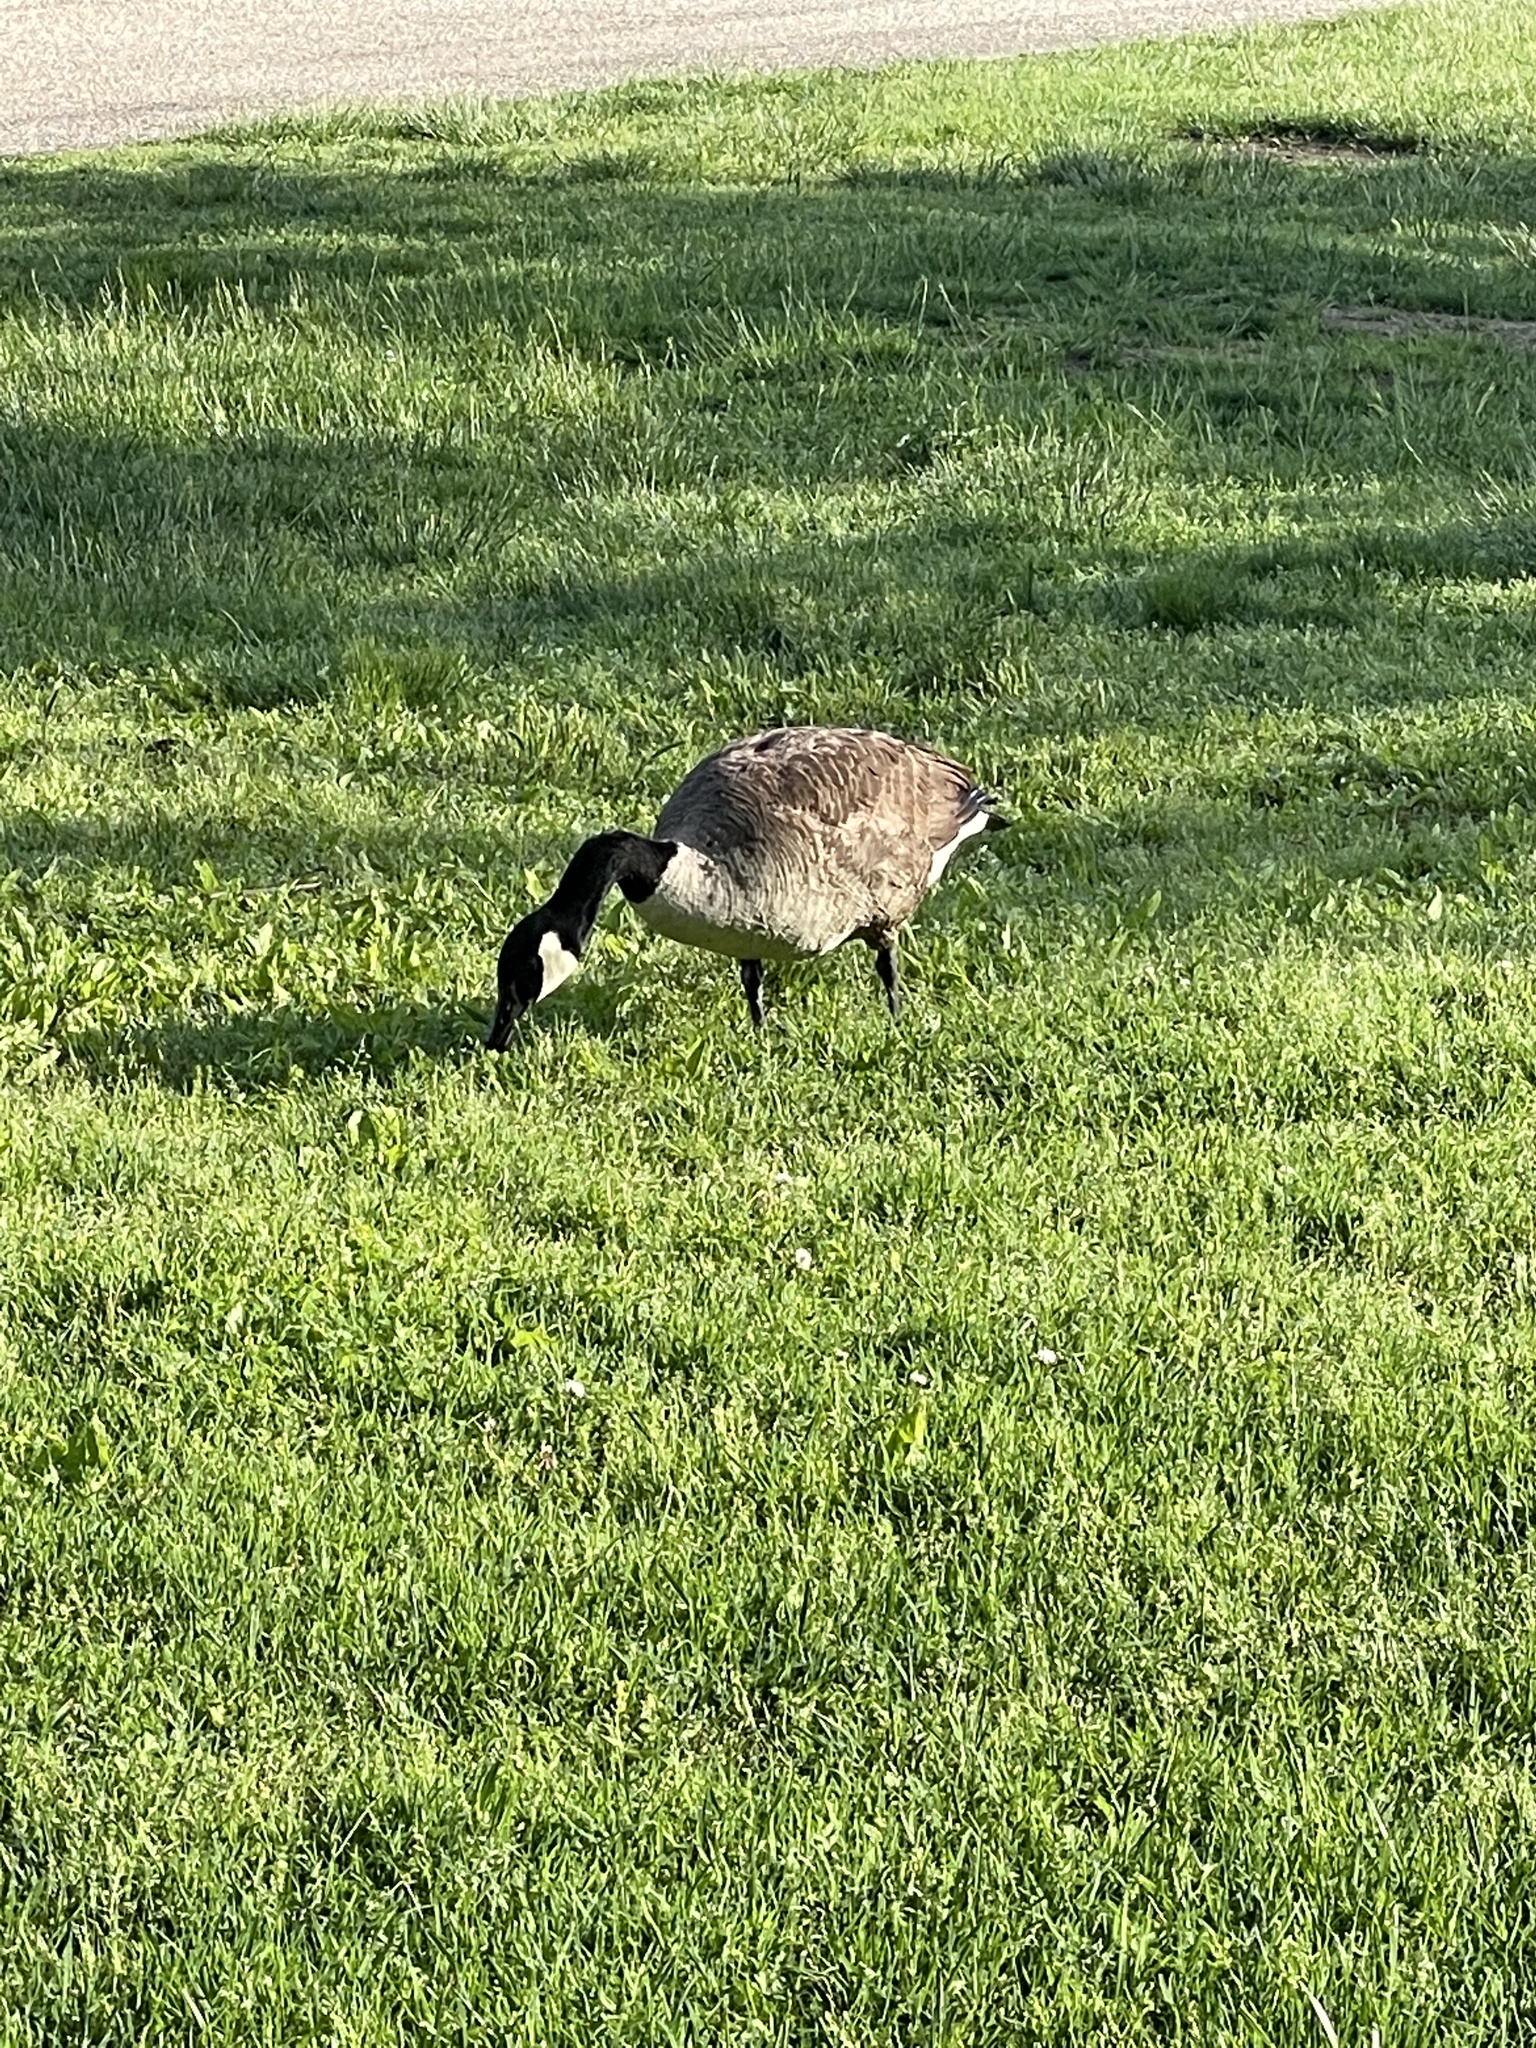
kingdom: Animalia
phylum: Chordata
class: Aves
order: Anseriformes
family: Anatidae
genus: Branta
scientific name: Branta canadensis
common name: Canada goose
